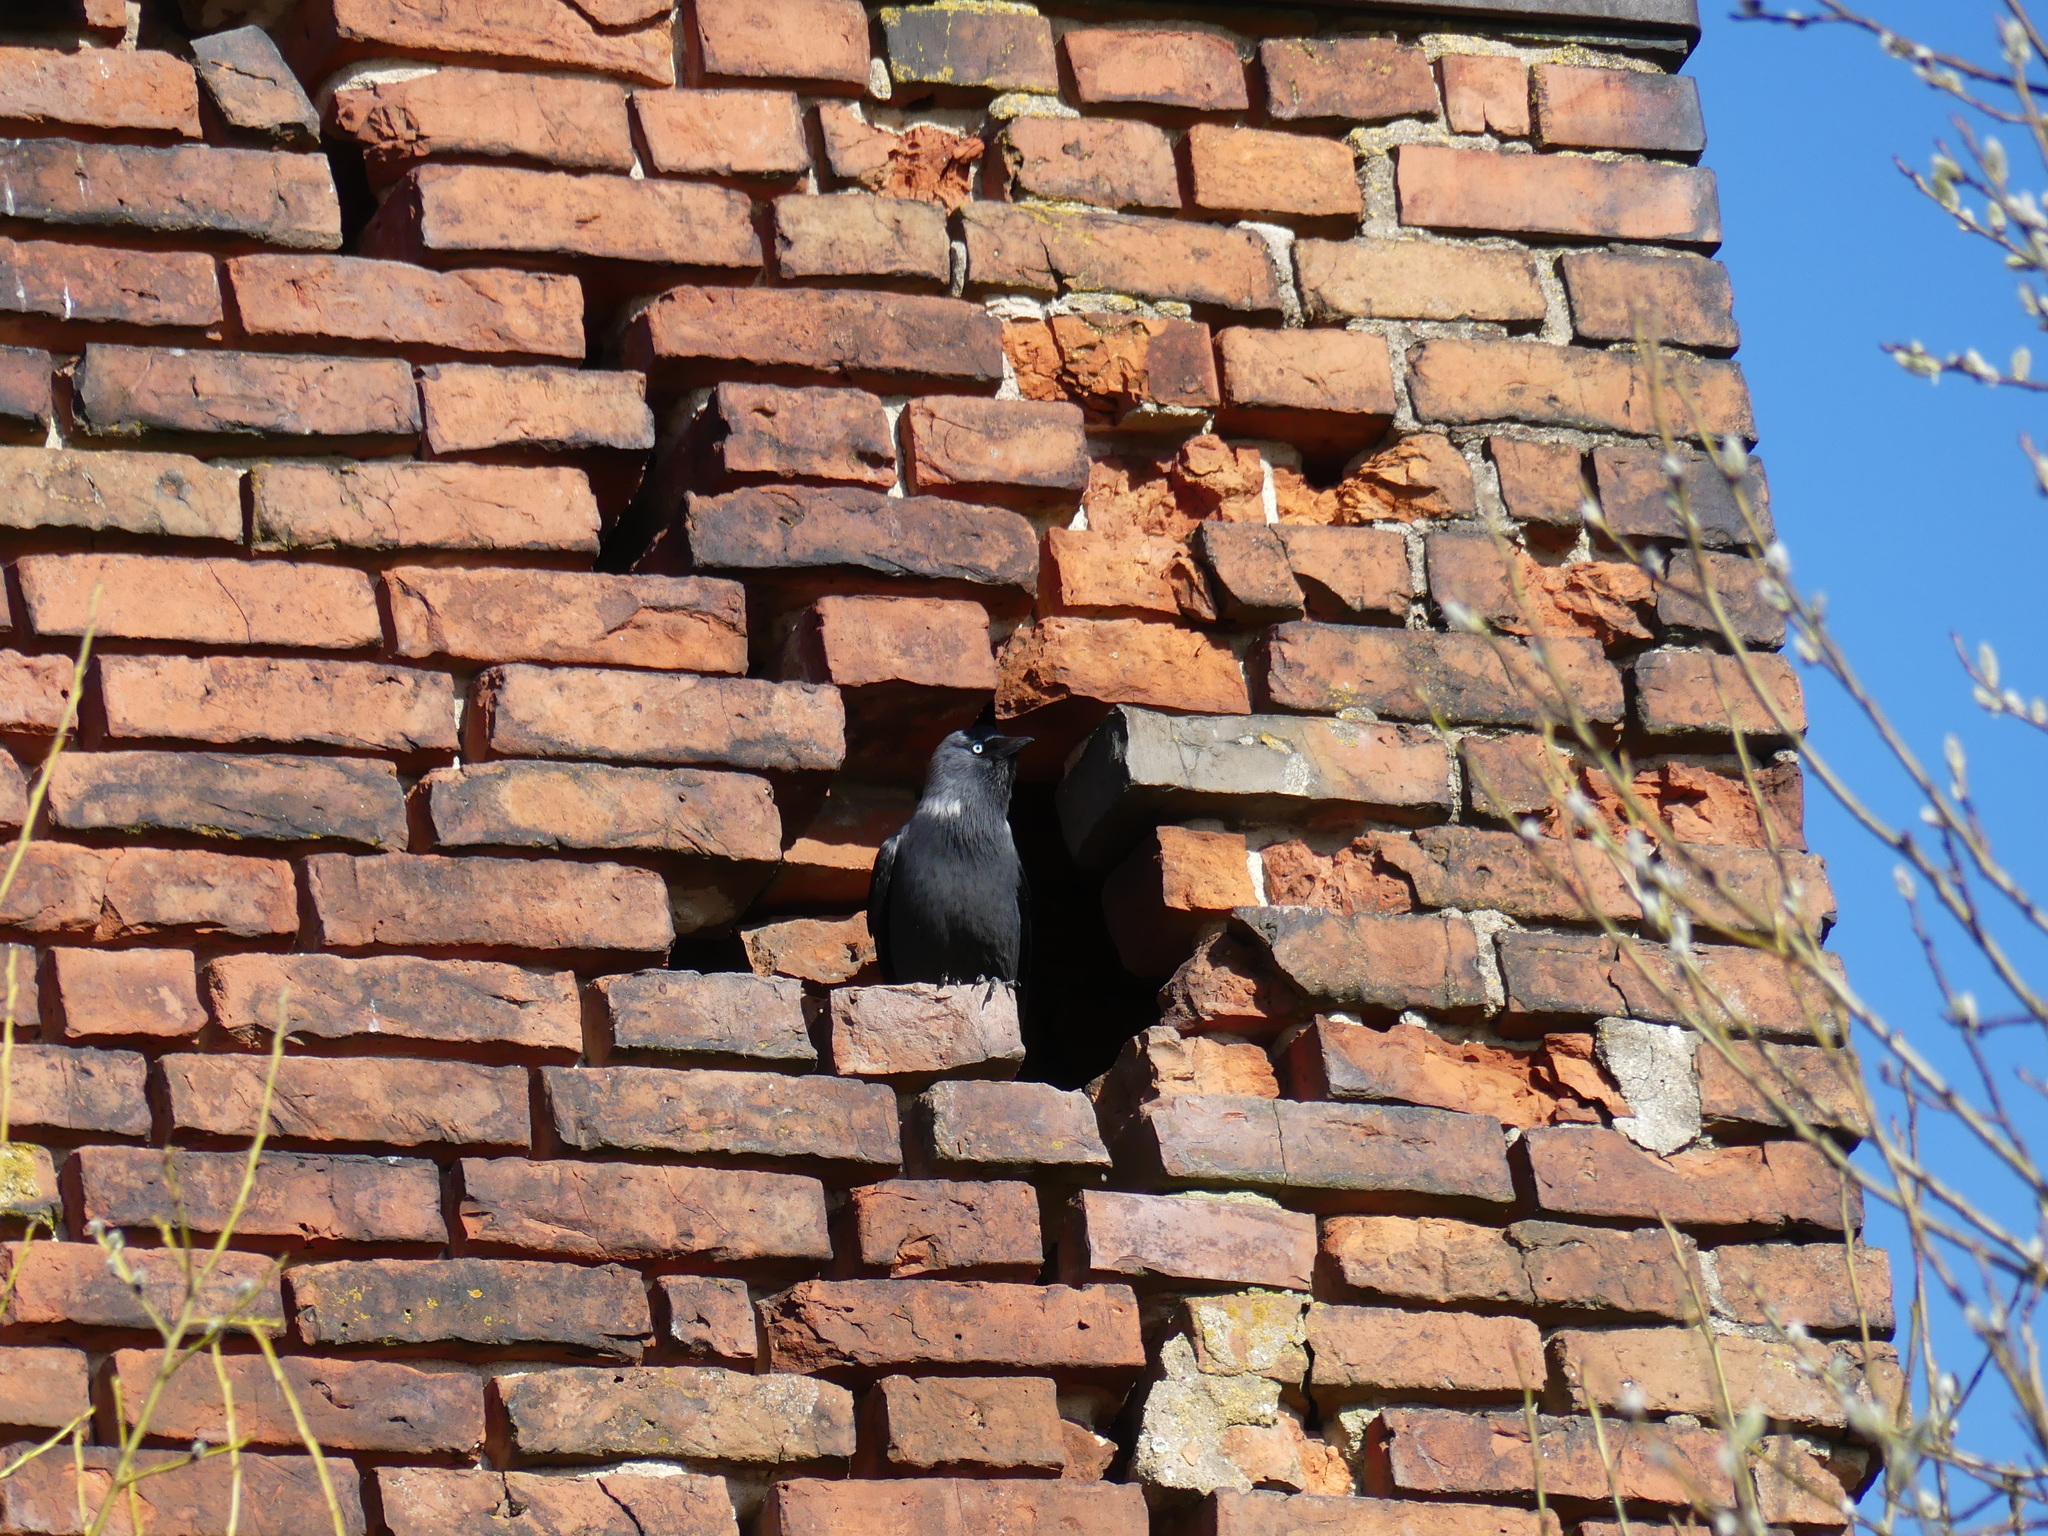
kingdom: Animalia
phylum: Chordata
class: Aves
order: Passeriformes
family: Corvidae
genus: Coloeus
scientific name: Coloeus monedula
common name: Western jackdaw
